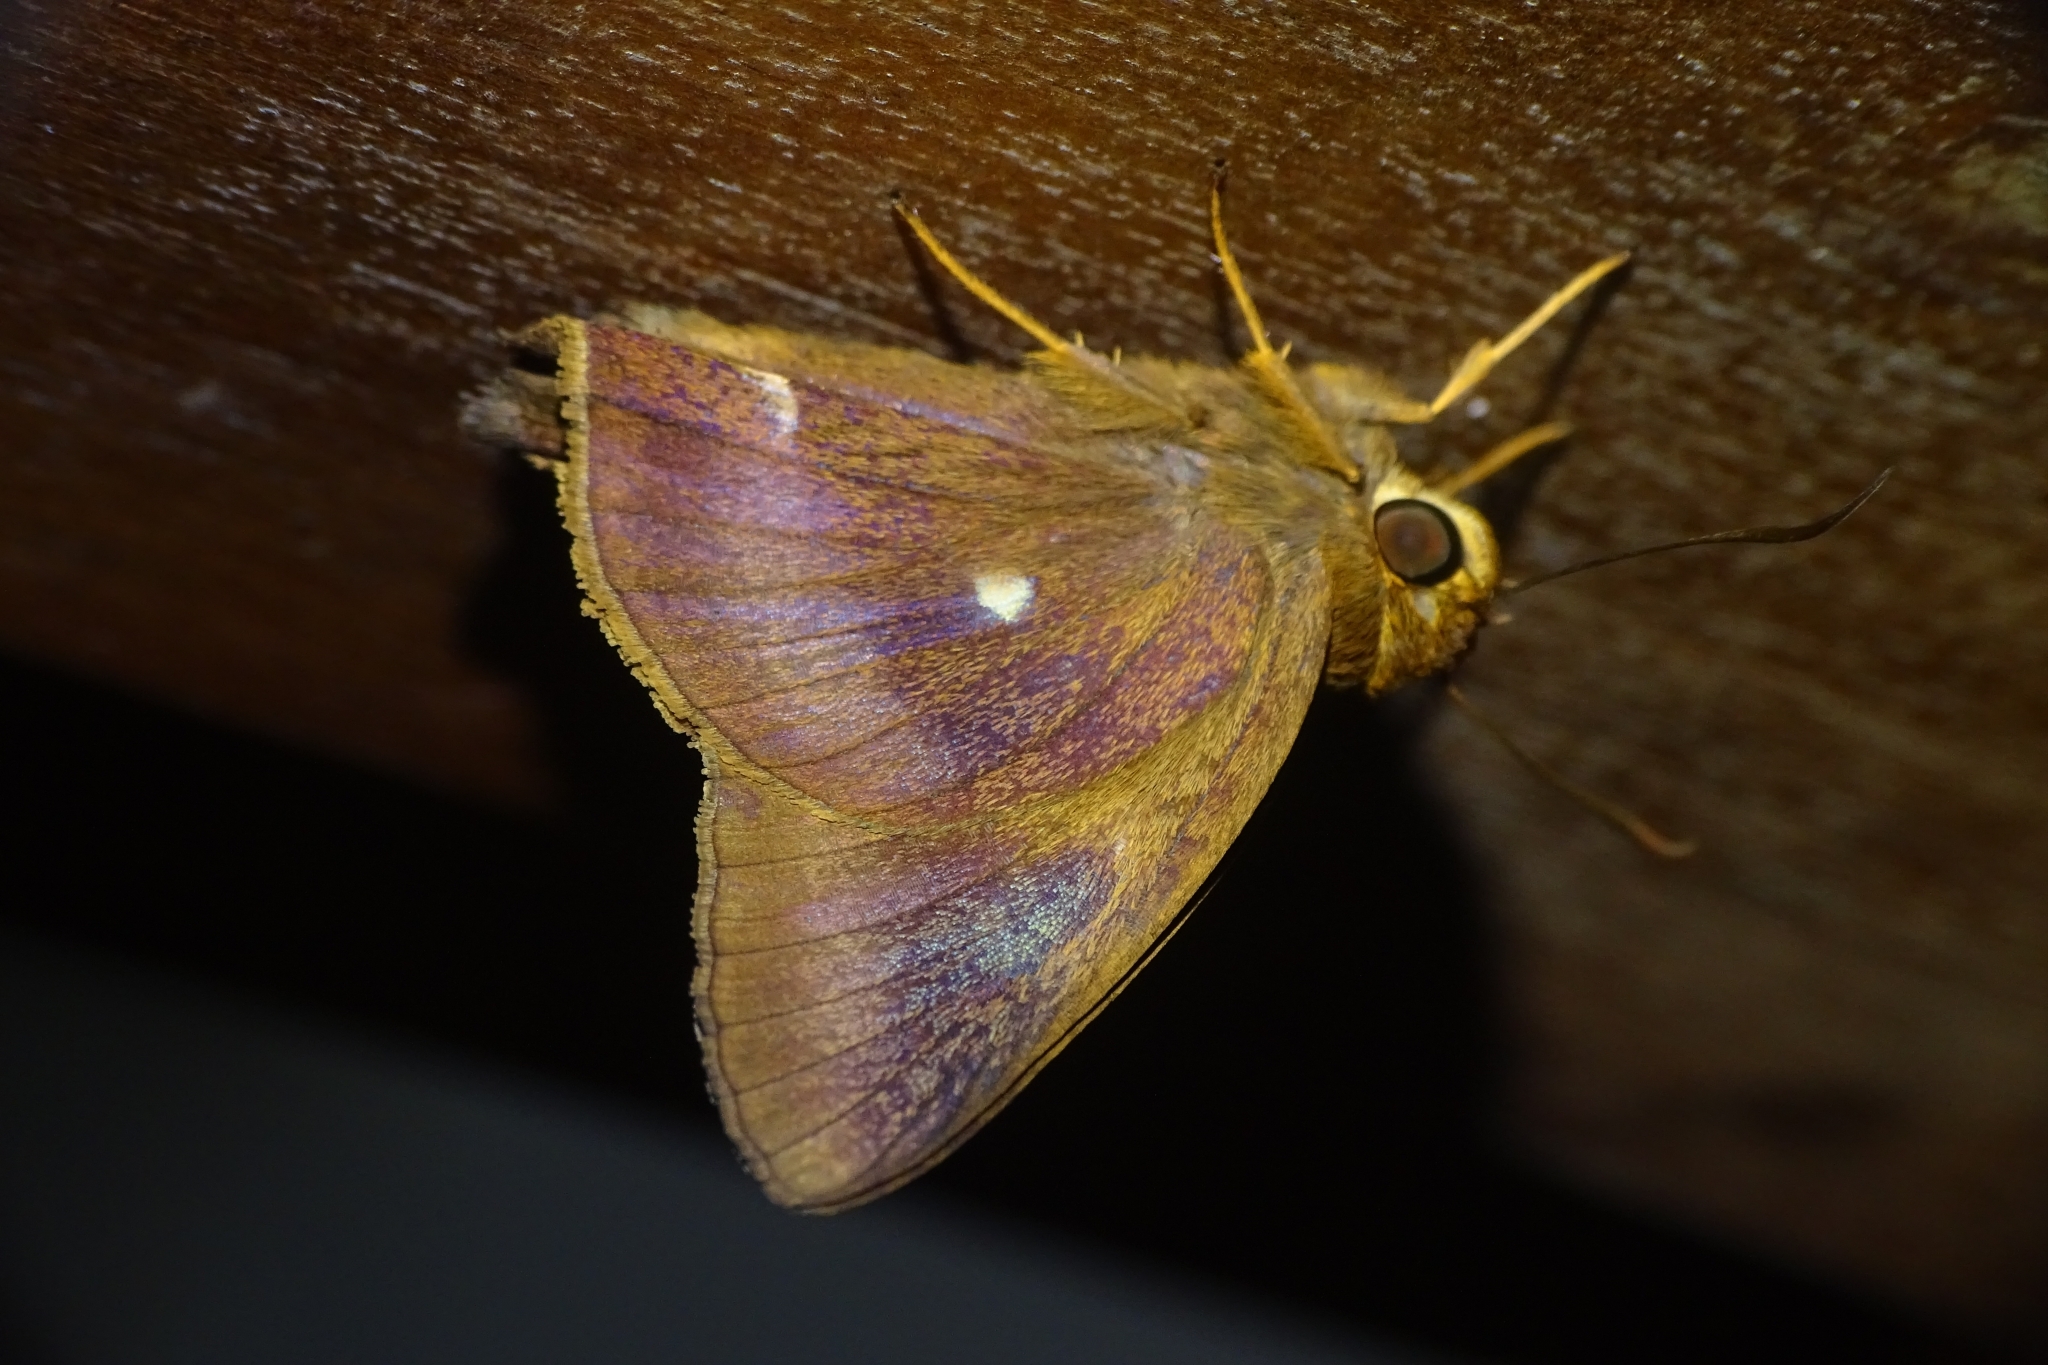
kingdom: Animalia
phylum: Arthropoda
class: Insecta
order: Lepidoptera
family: Hesperiidae
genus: Hasora
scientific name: Hasora badra
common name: Common awl
